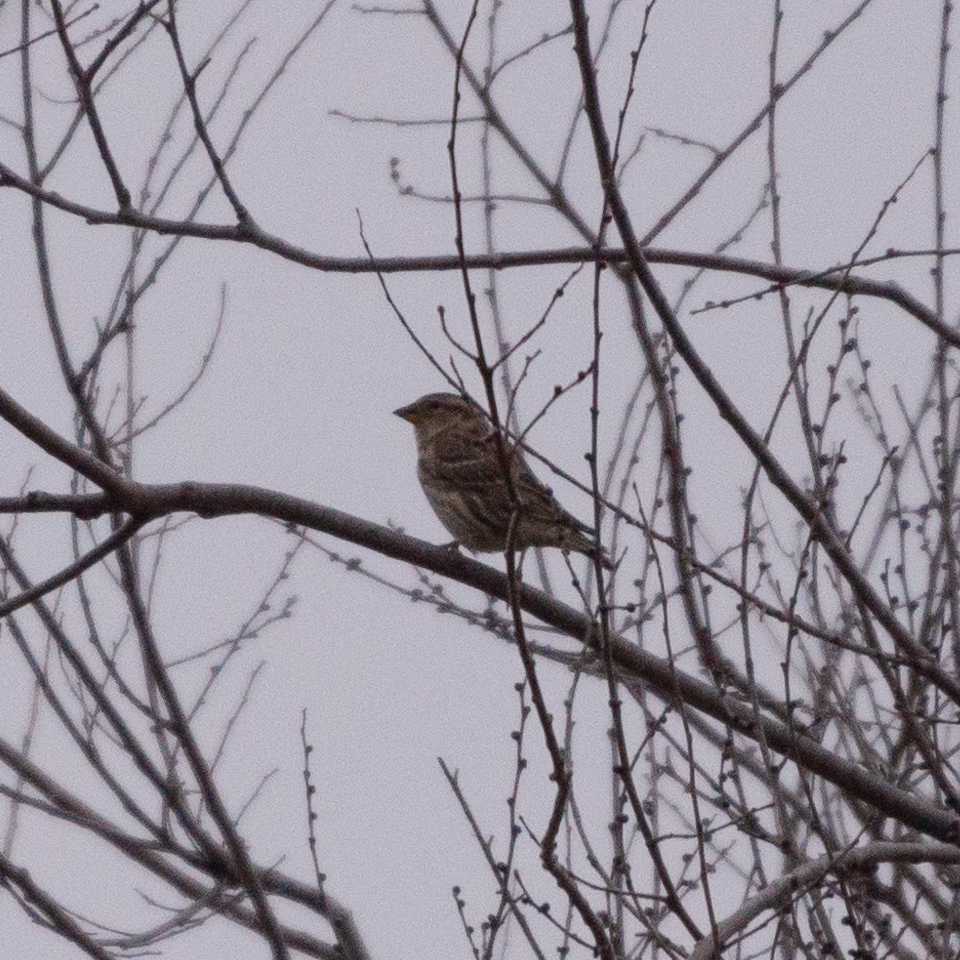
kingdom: Animalia
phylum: Chordata
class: Aves
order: Passeriformes
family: Passeridae
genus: Petronia
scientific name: Petronia petronia
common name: Rock sparrow
